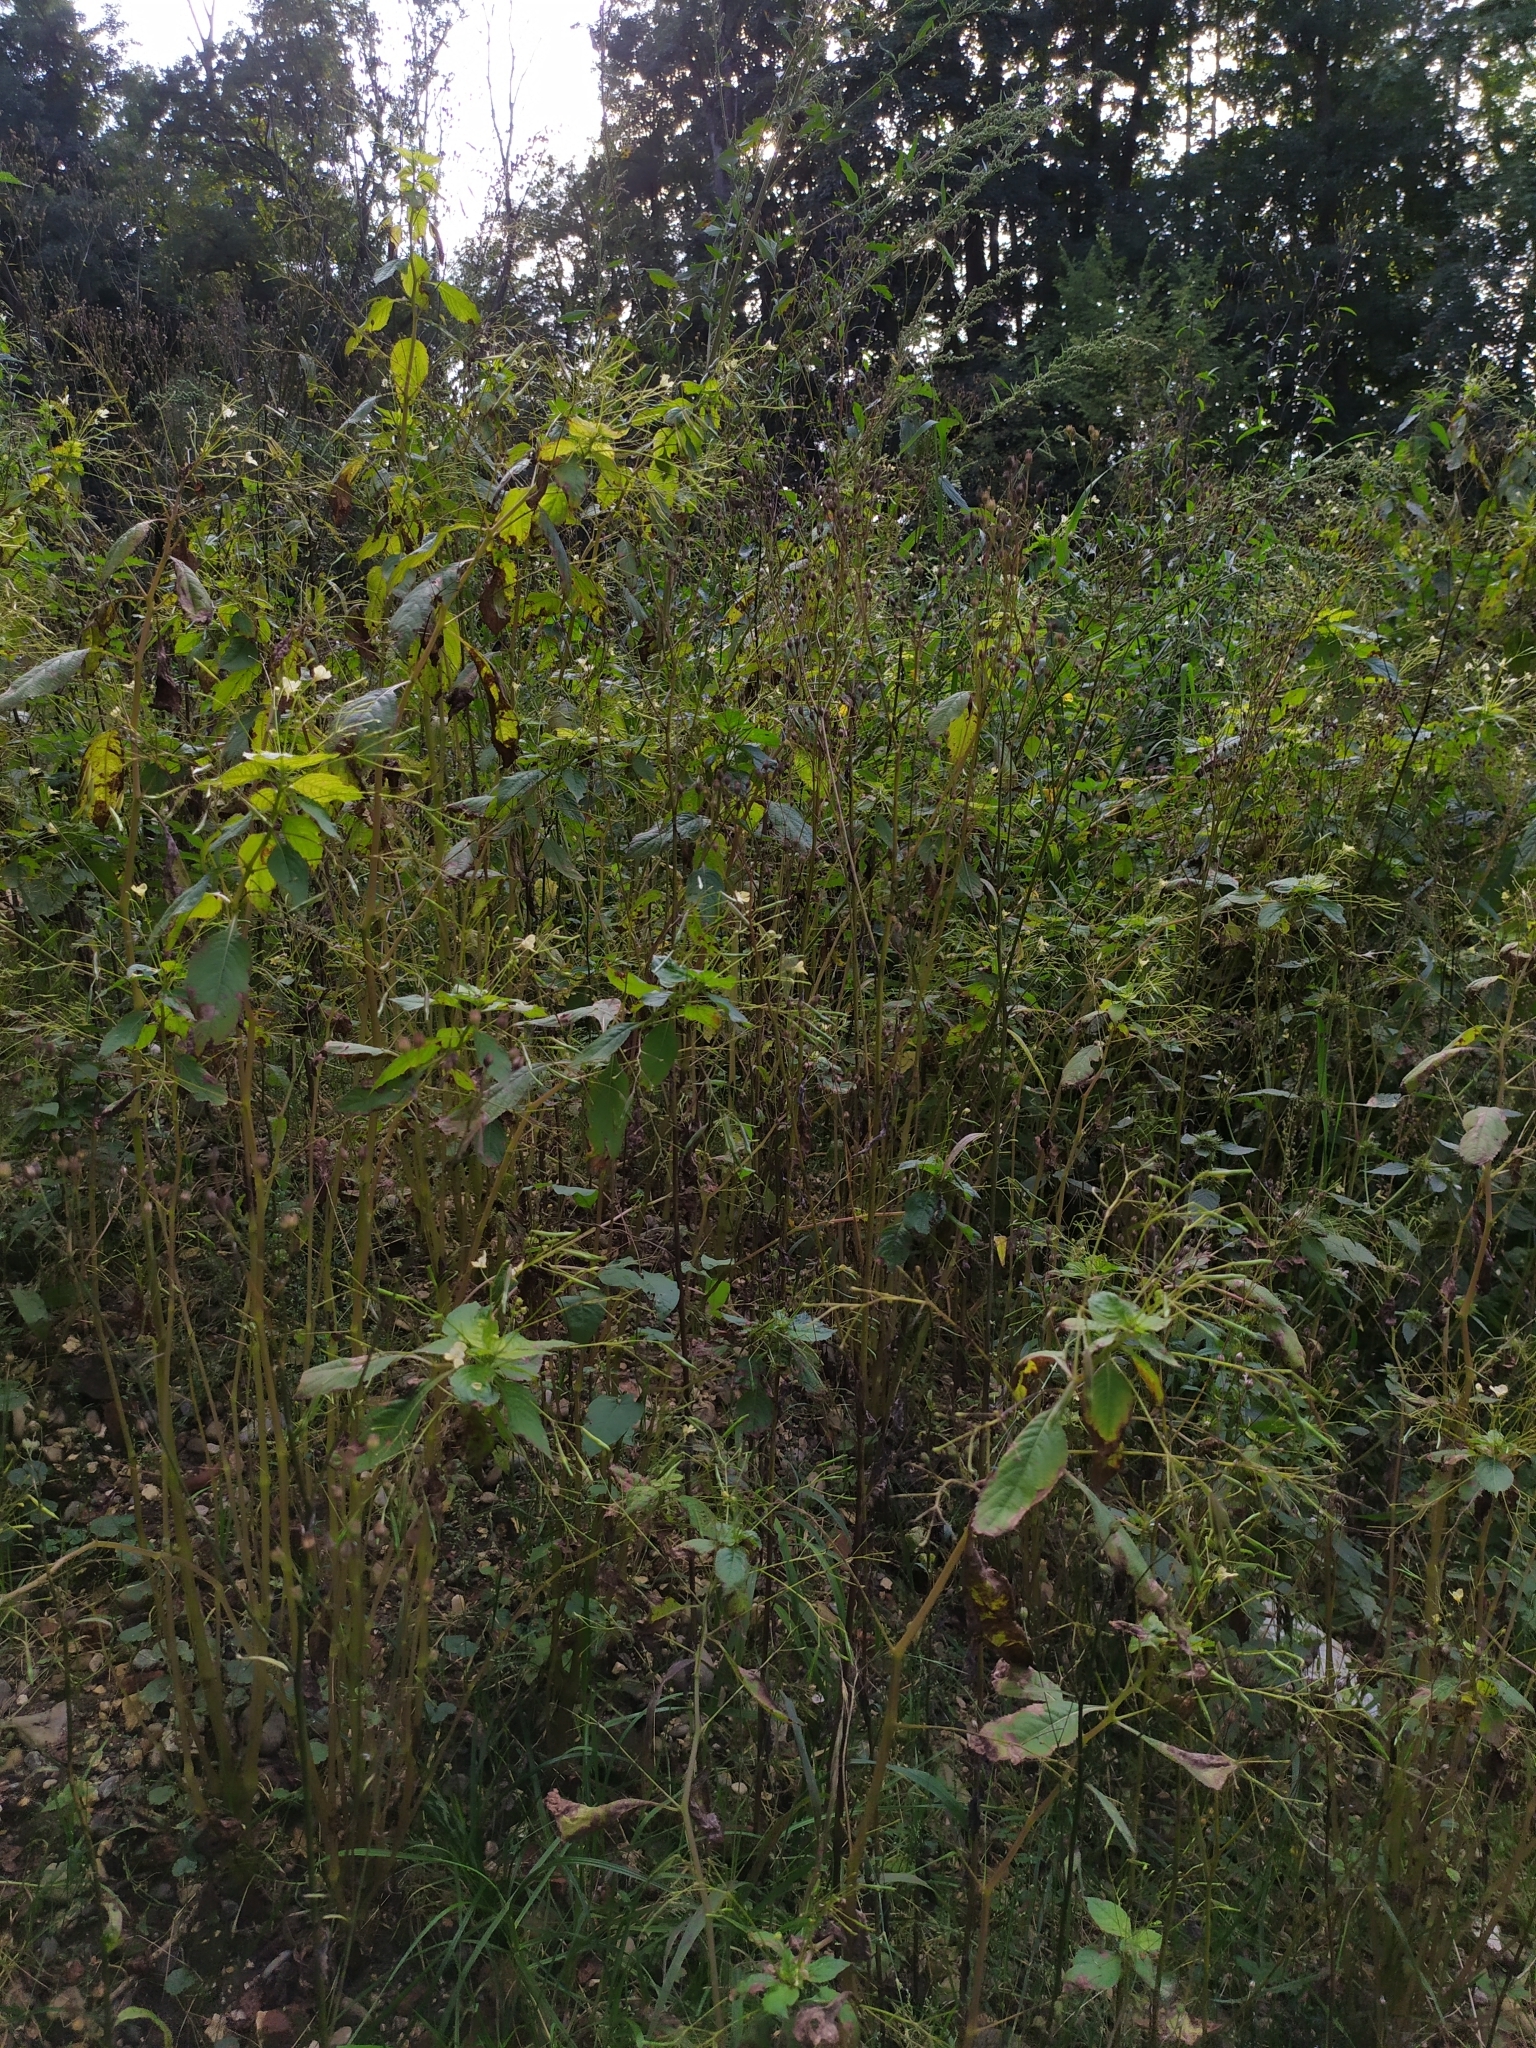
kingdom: Plantae
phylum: Tracheophyta
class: Magnoliopsida
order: Ericales
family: Balsaminaceae
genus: Impatiens
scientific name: Impatiens parviflora
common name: Small balsam
